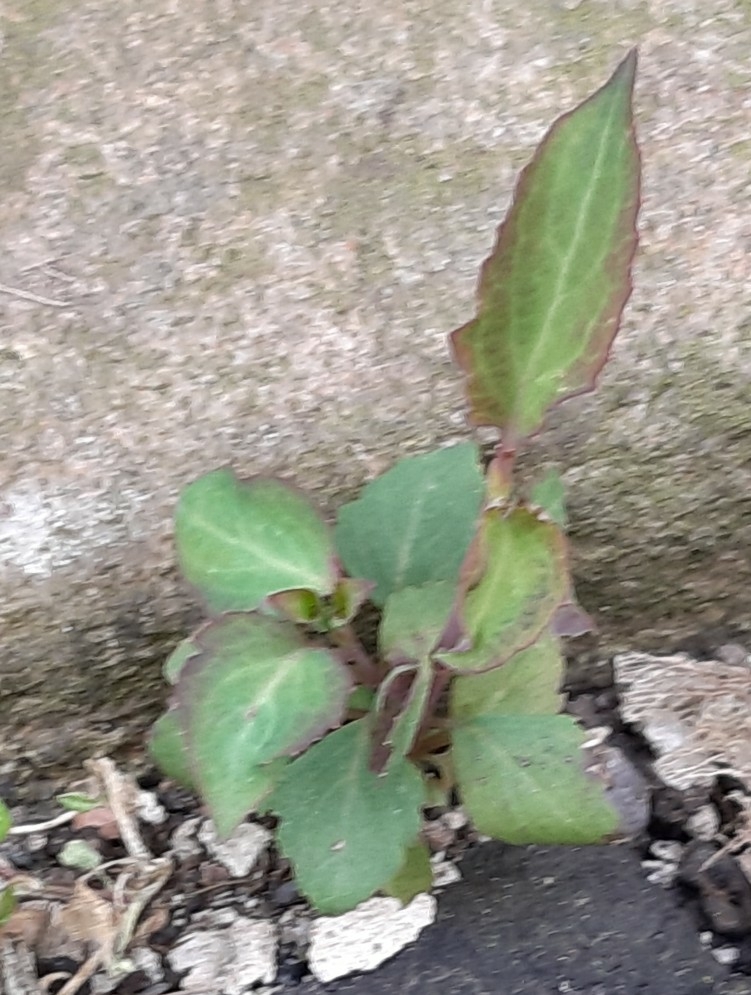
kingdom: Plantae
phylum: Tracheophyta
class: Magnoliopsida
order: Dipsacales
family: Caprifoliaceae
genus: Leycesteria
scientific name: Leycesteria formosa
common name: Himalayan honeysuckle
